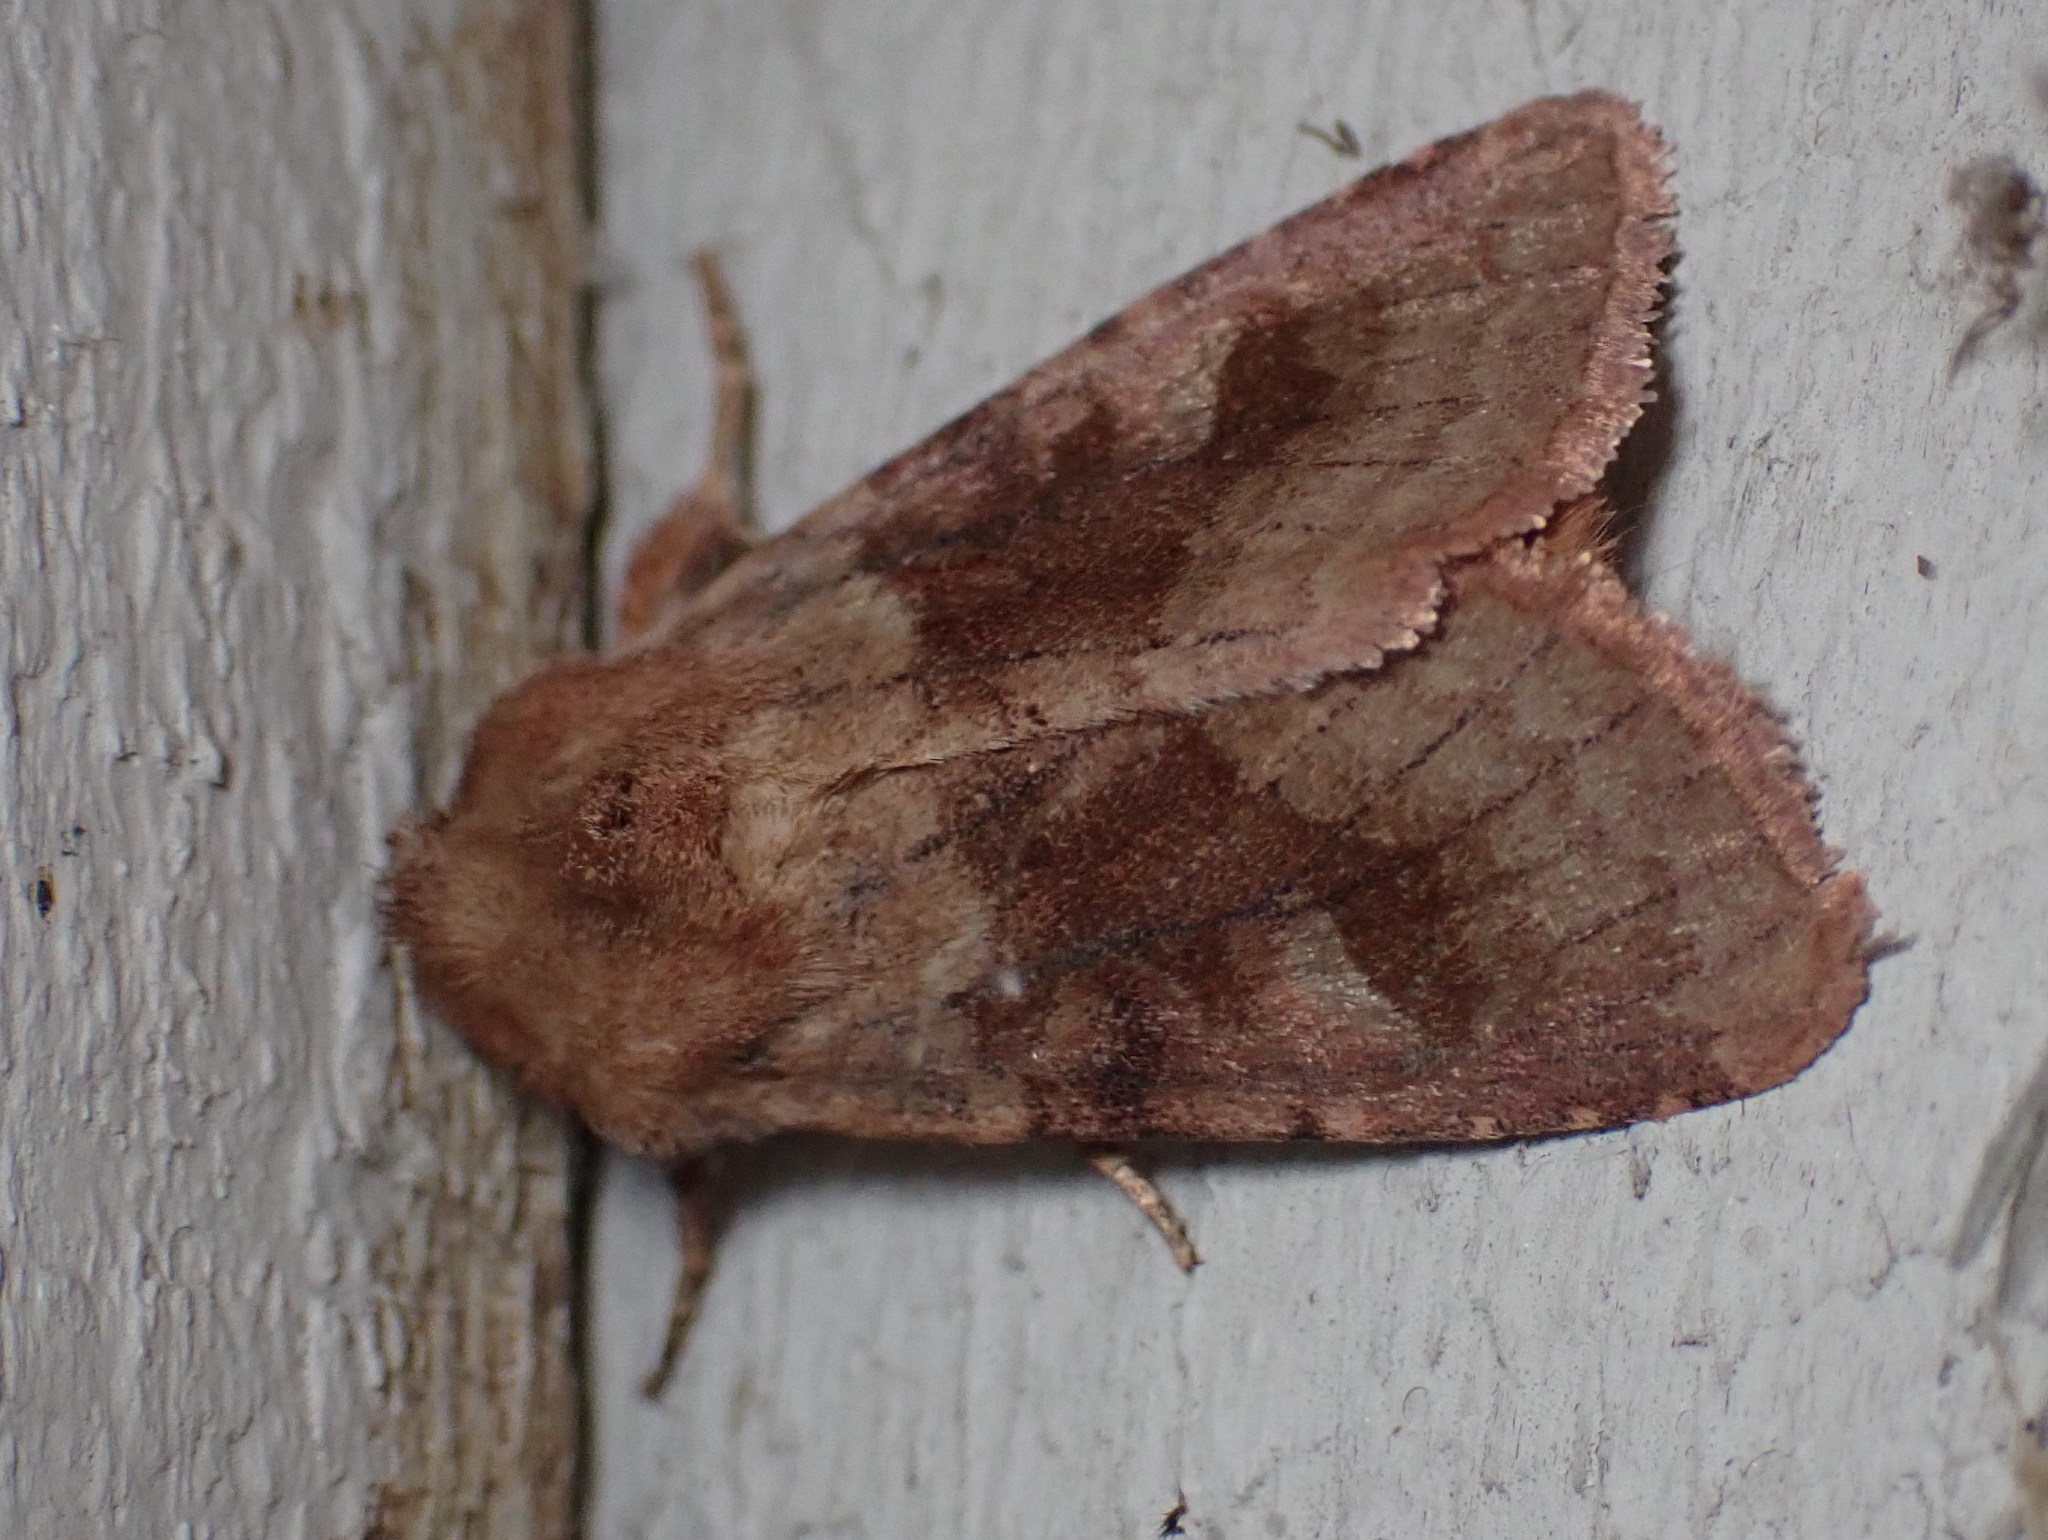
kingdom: Animalia
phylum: Arthropoda
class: Insecta
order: Lepidoptera
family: Noctuidae
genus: Nephelodes
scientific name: Nephelodes minians
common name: Bronzed cutworm
